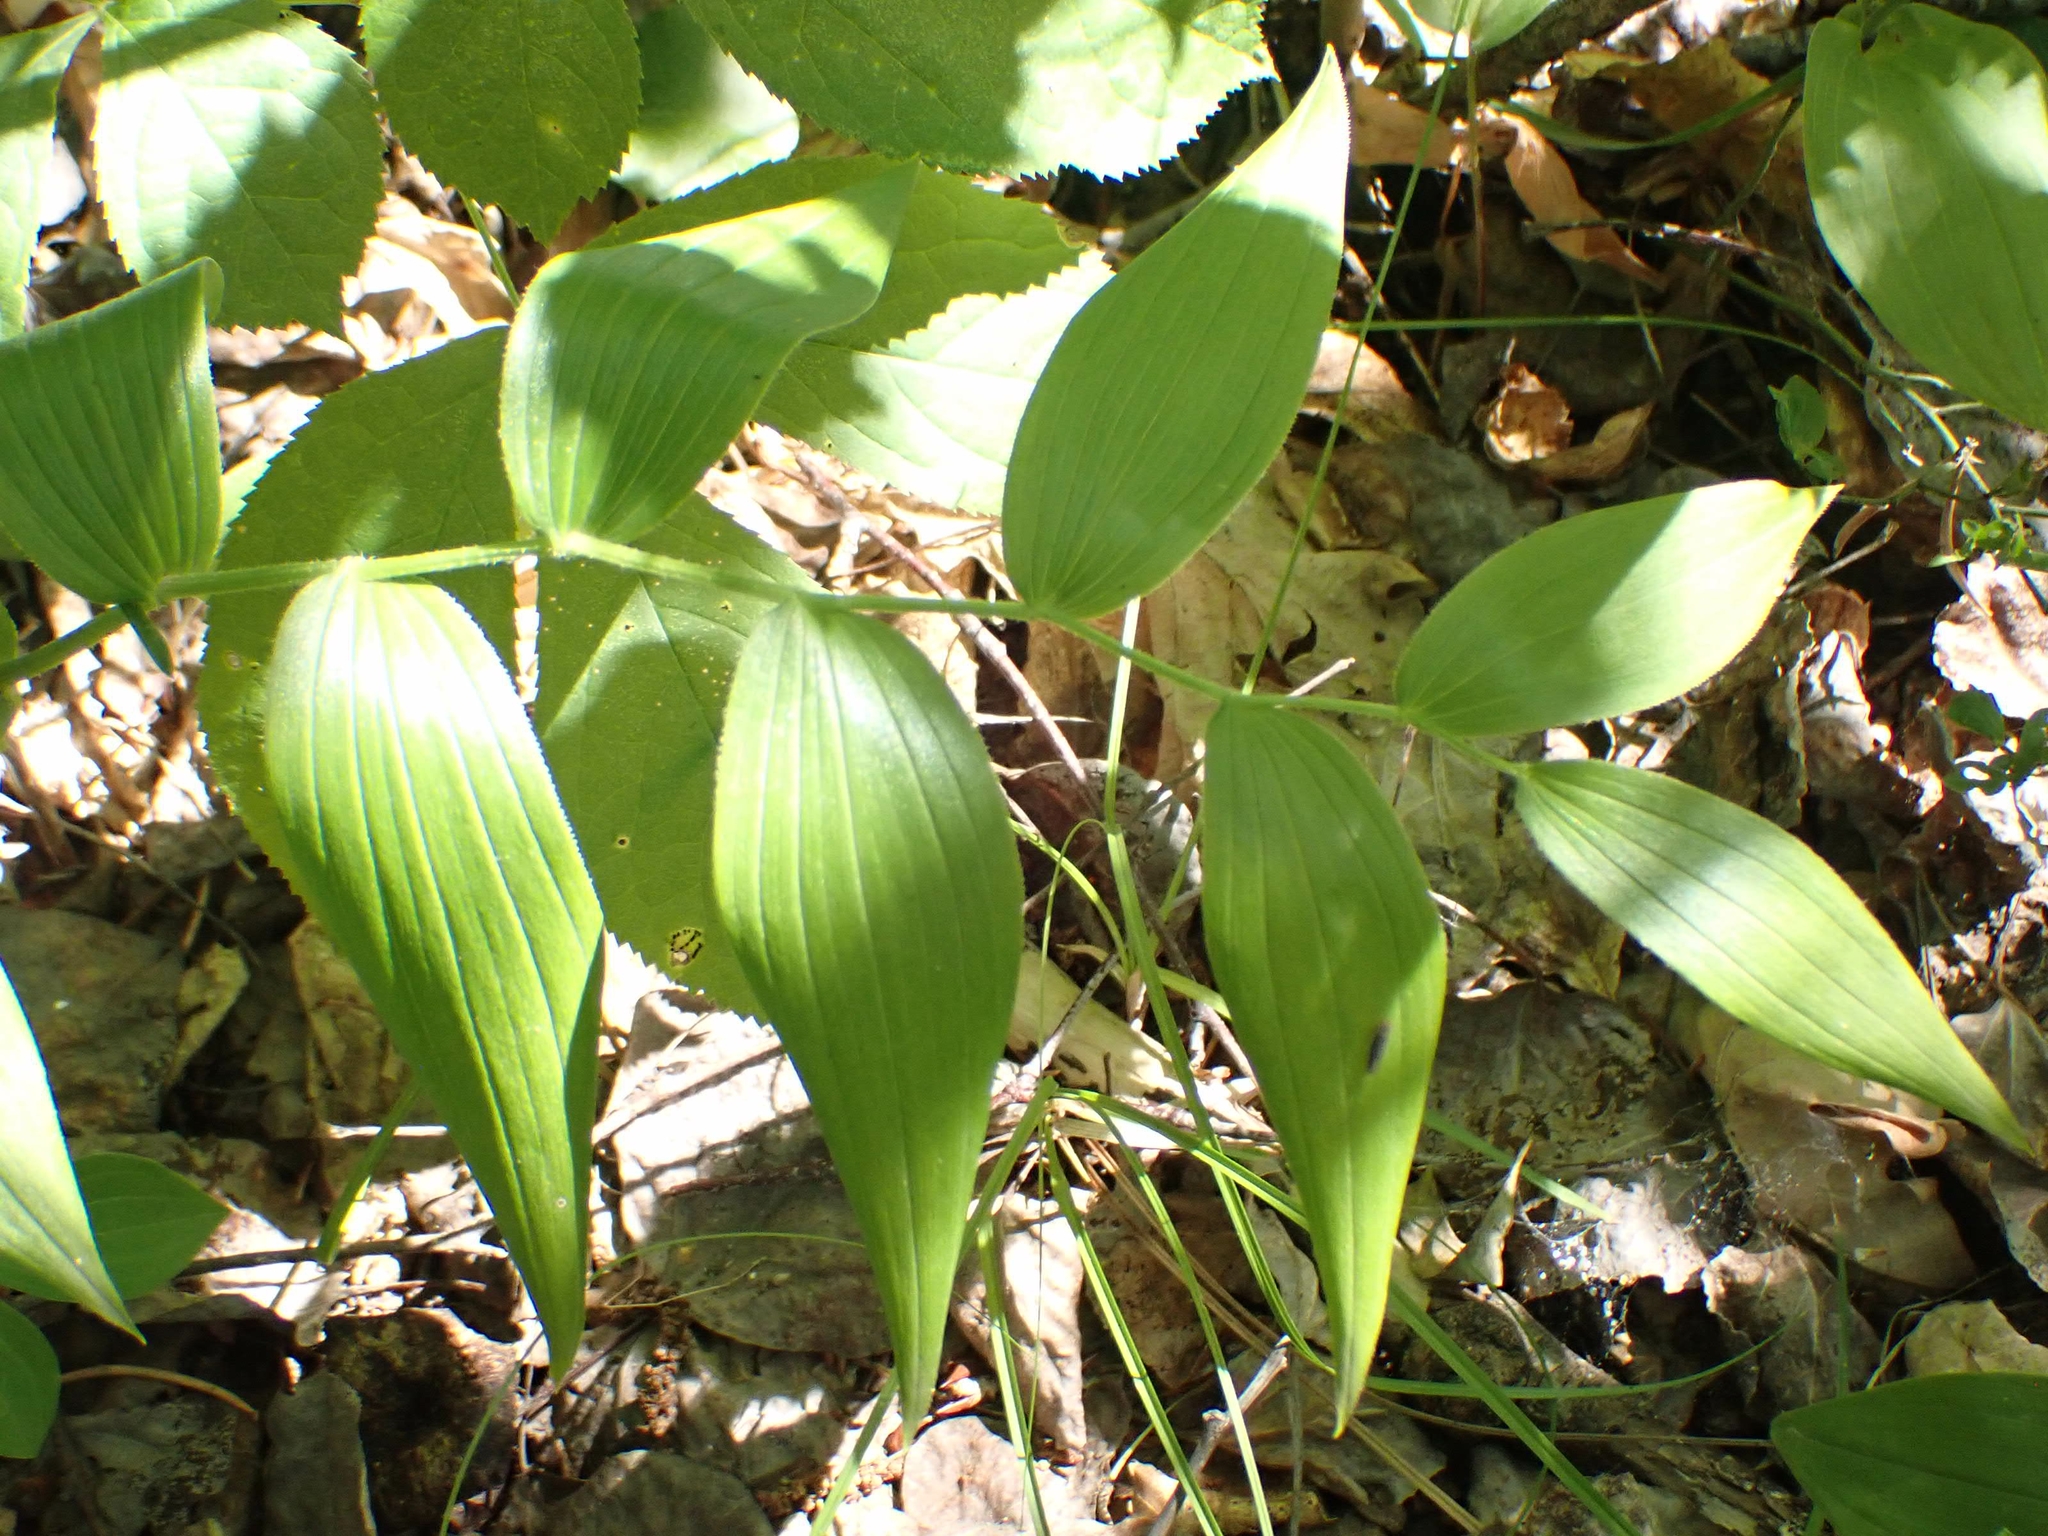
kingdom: Plantae
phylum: Tracheophyta
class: Liliopsida
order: Liliales
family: Liliaceae
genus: Streptopus
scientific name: Streptopus lanceolatus
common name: Rose mandarin
